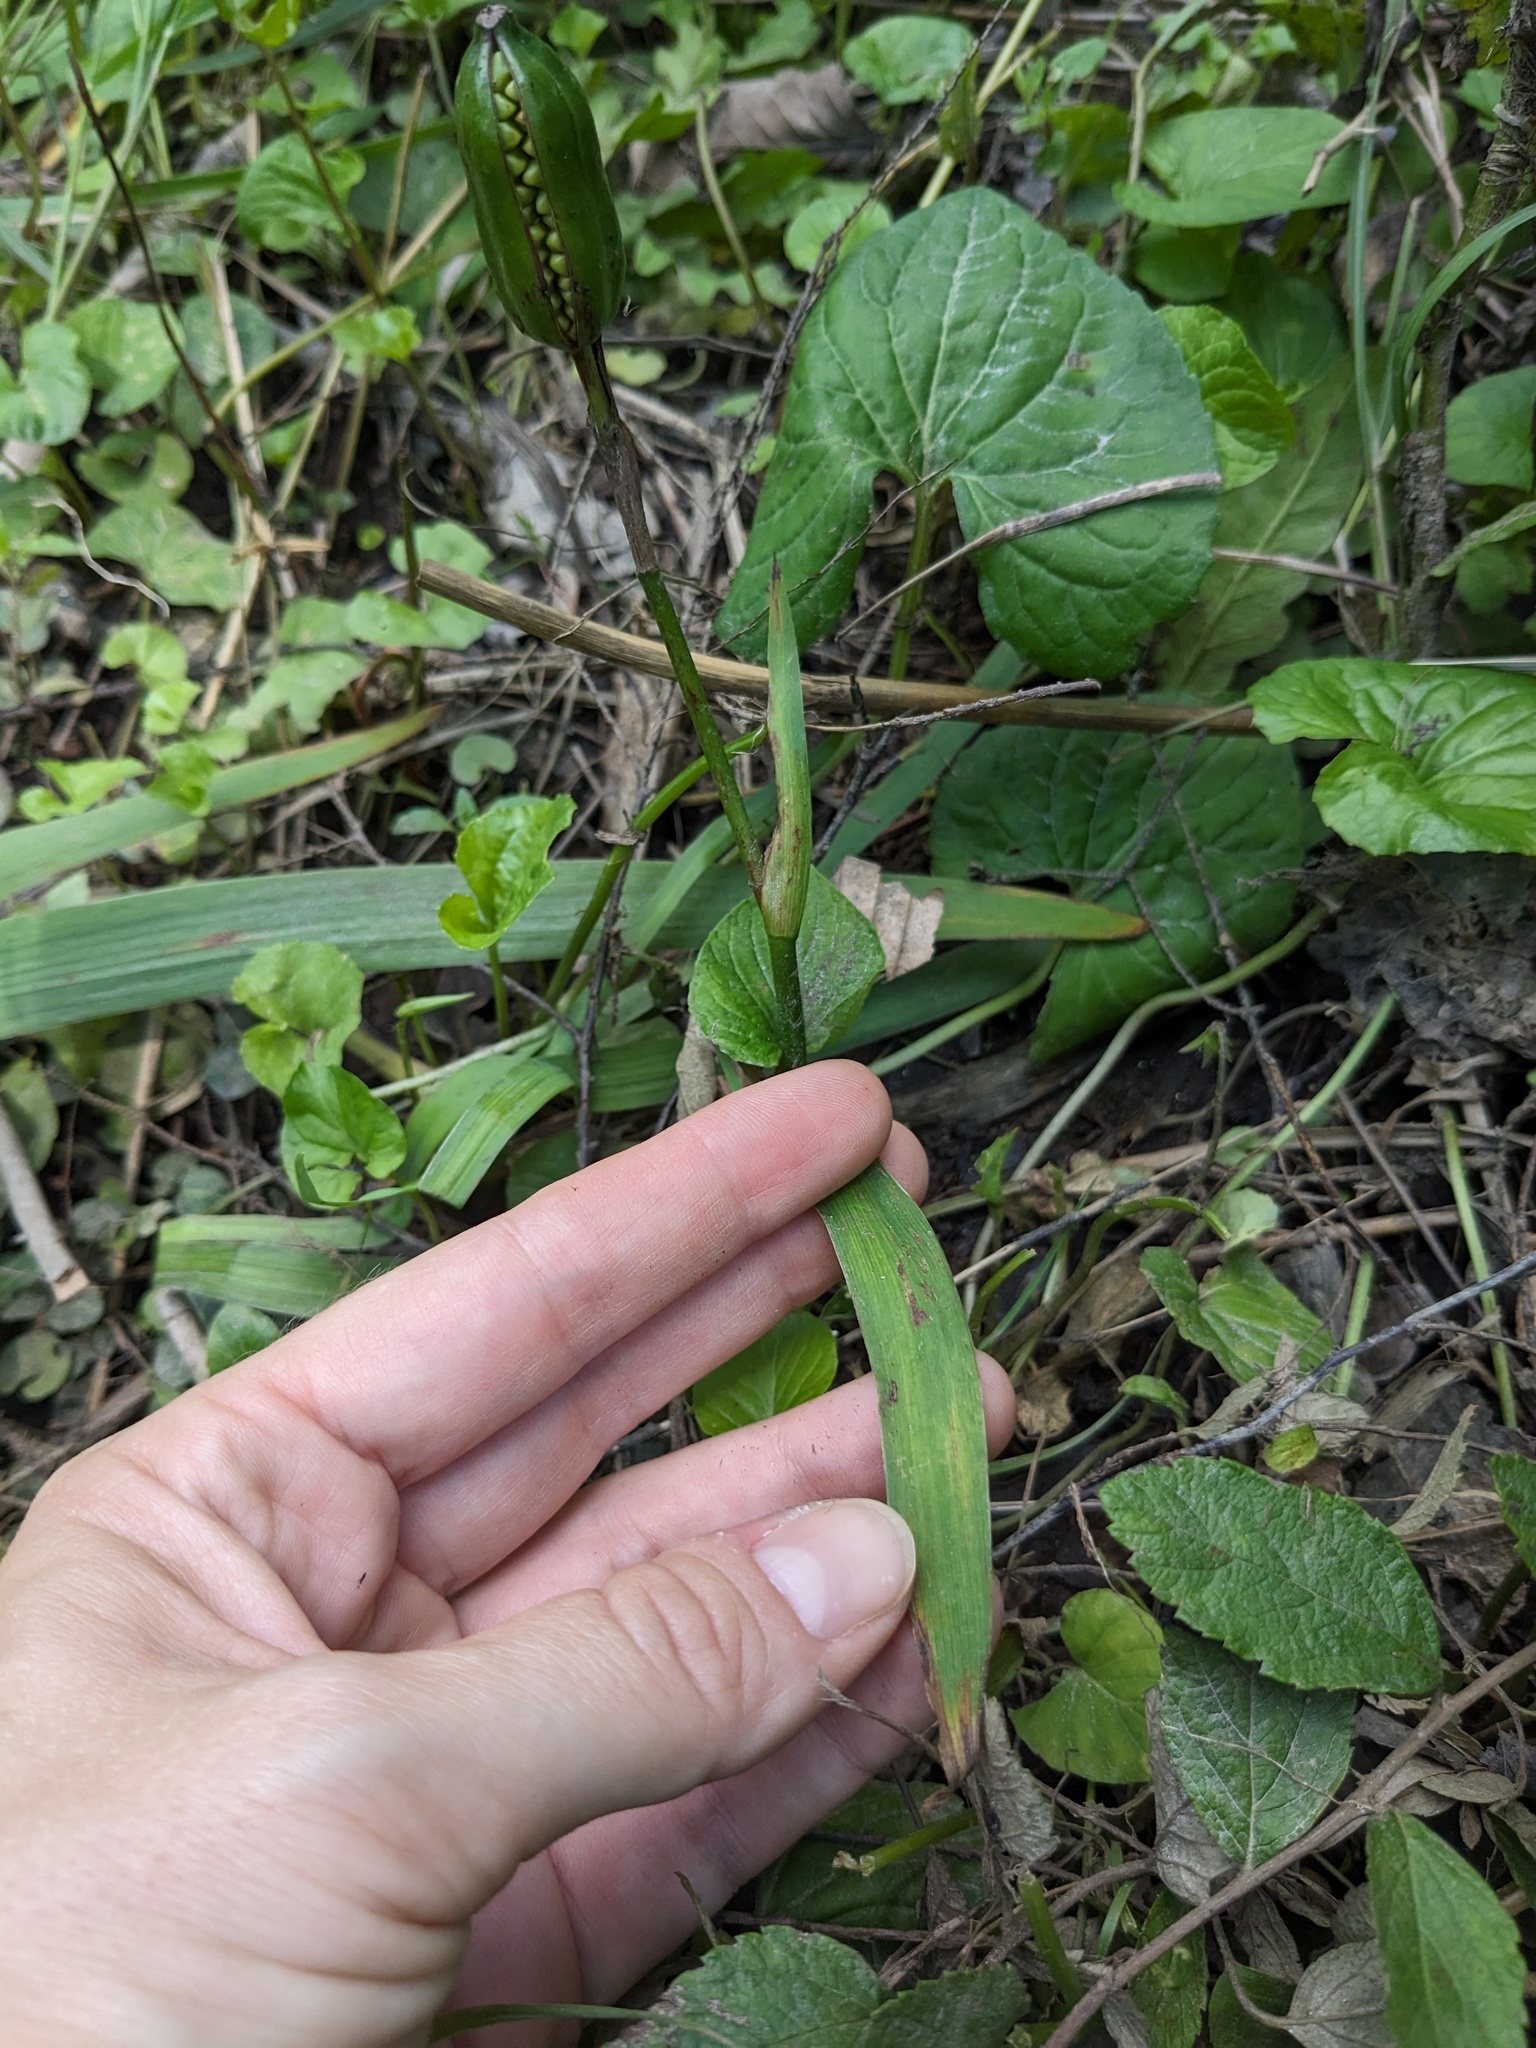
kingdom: Plantae
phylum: Tracheophyta
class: Liliopsida
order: Asparagales
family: Iridaceae
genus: Iris
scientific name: Iris versicolor
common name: Purple iris
